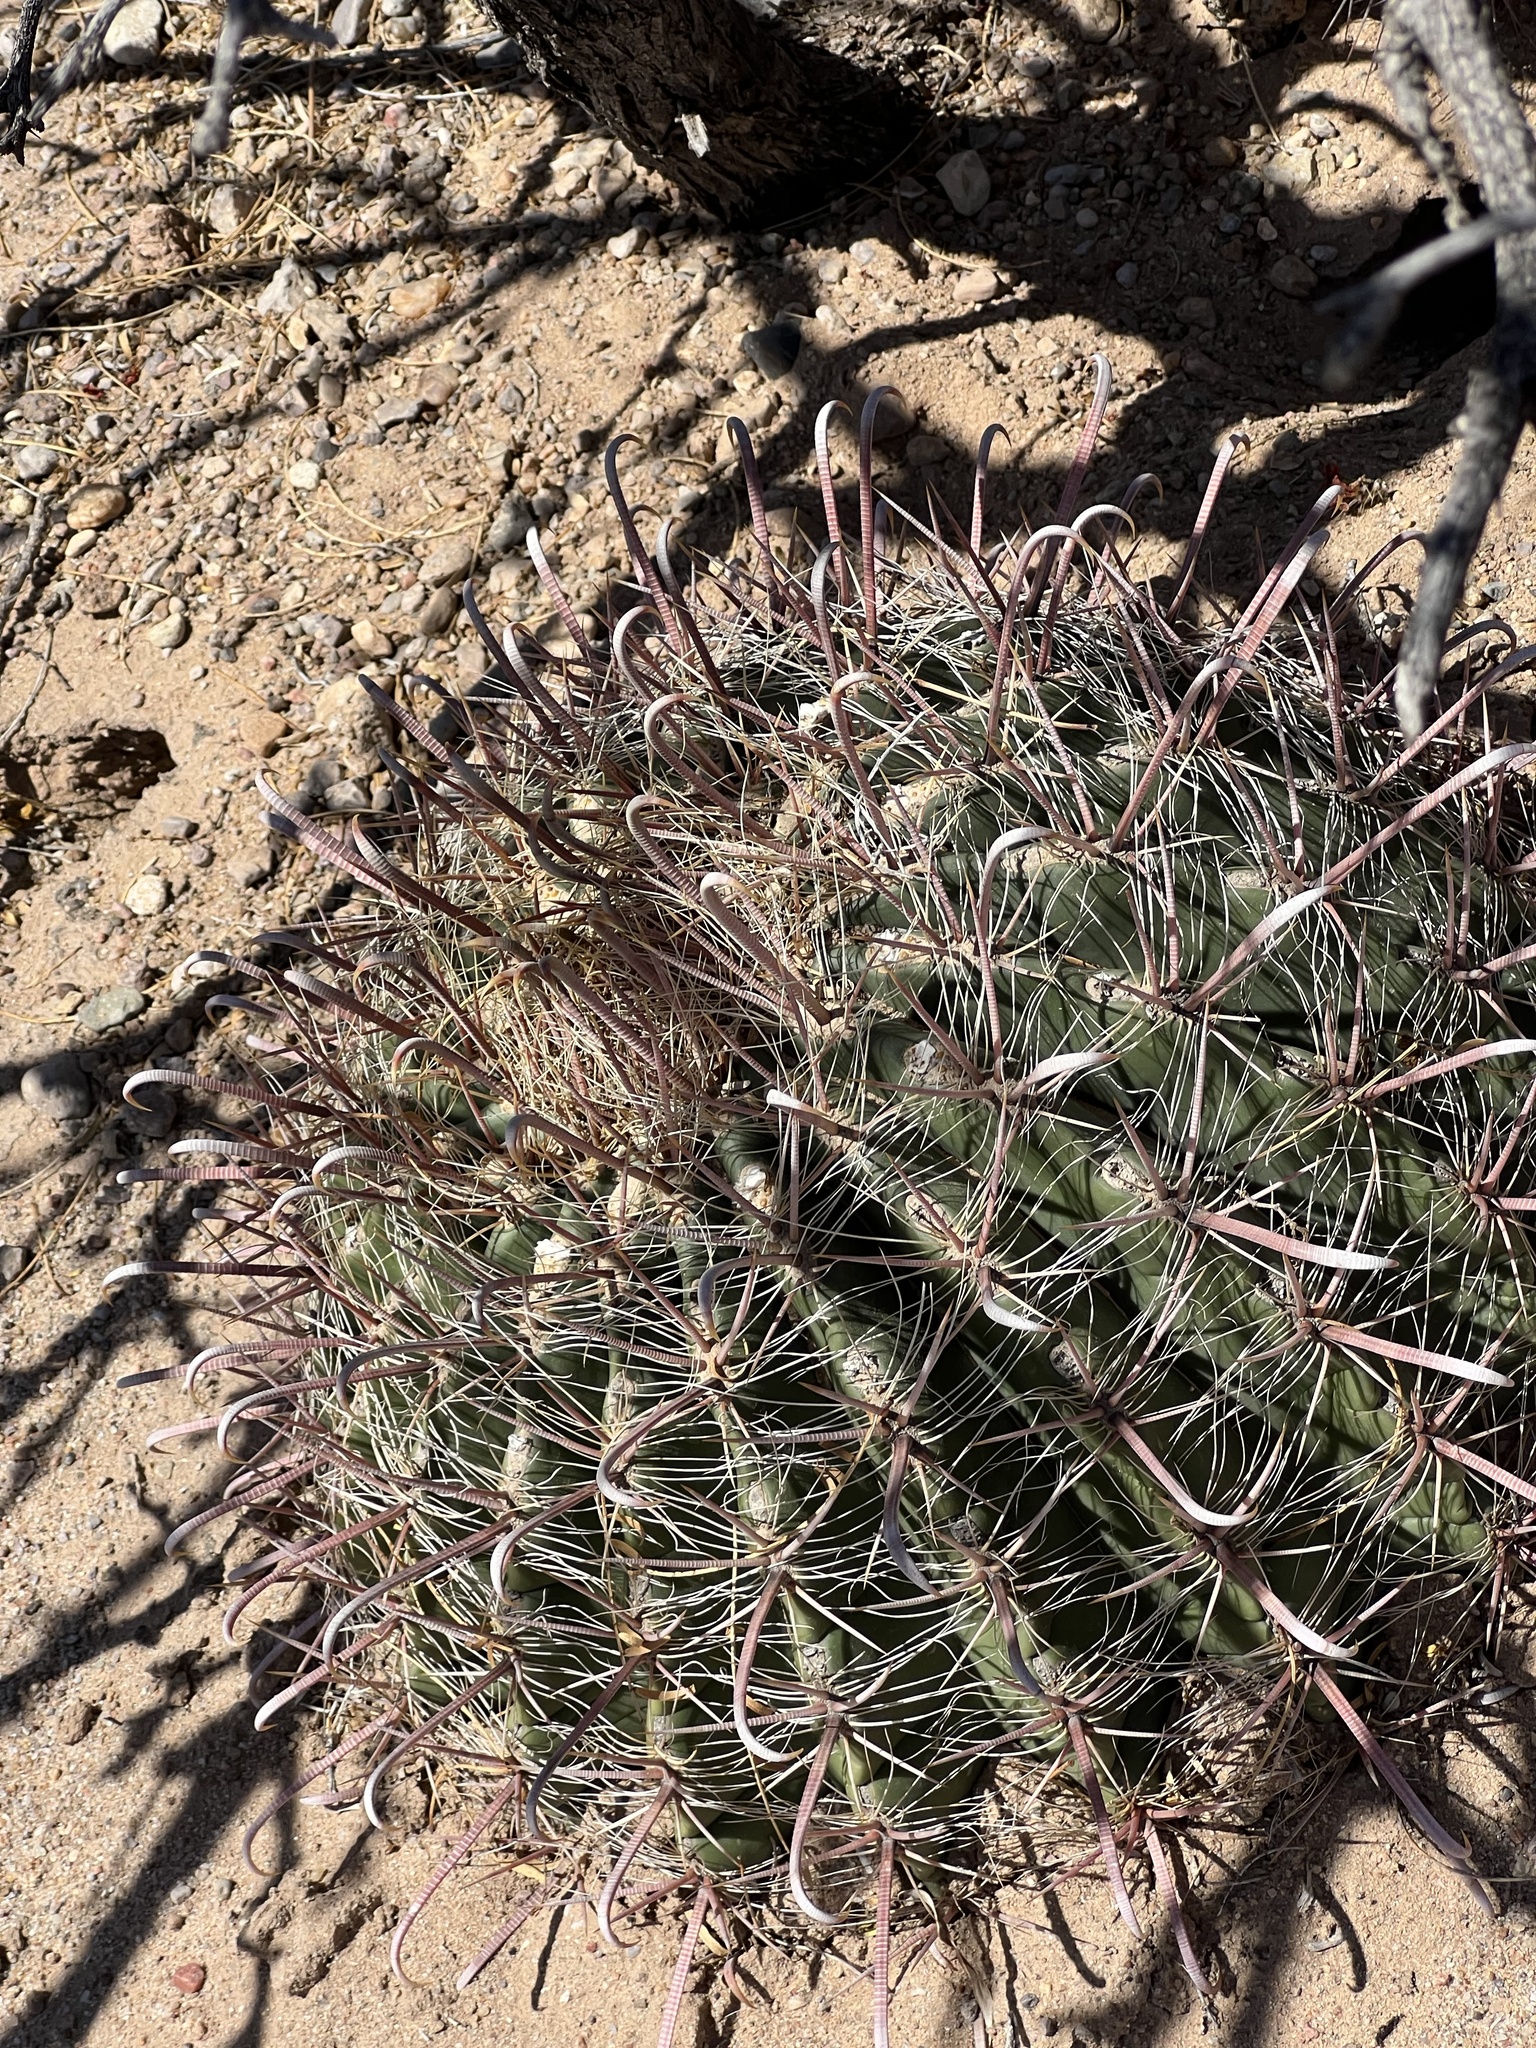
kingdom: Plantae
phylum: Tracheophyta
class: Magnoliopsida
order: Caryophyllales
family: Cactaceae
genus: Ferocactus
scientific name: Ferocactus wislizeni
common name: Candy barrel cactus
